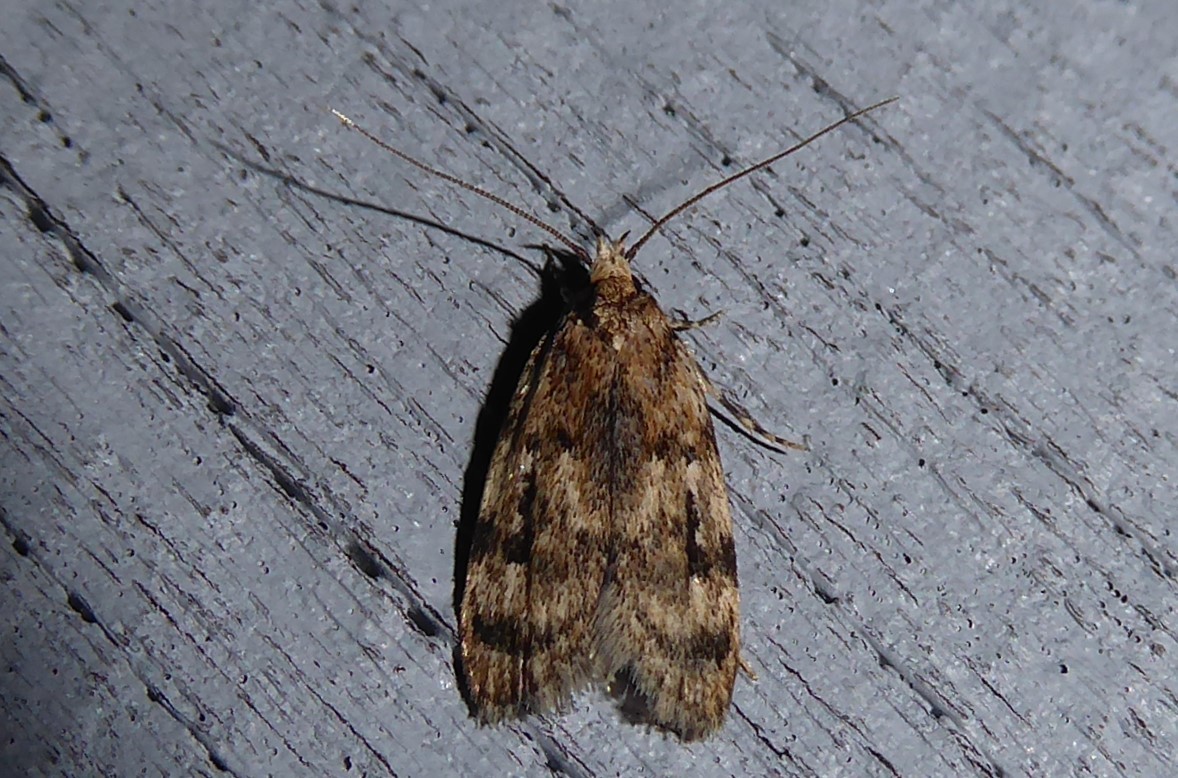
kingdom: Animalia
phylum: Arthropoda
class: Insecta
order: Lepidoptera
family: Oecophoridae
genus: Barea
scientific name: Barea exarcha
